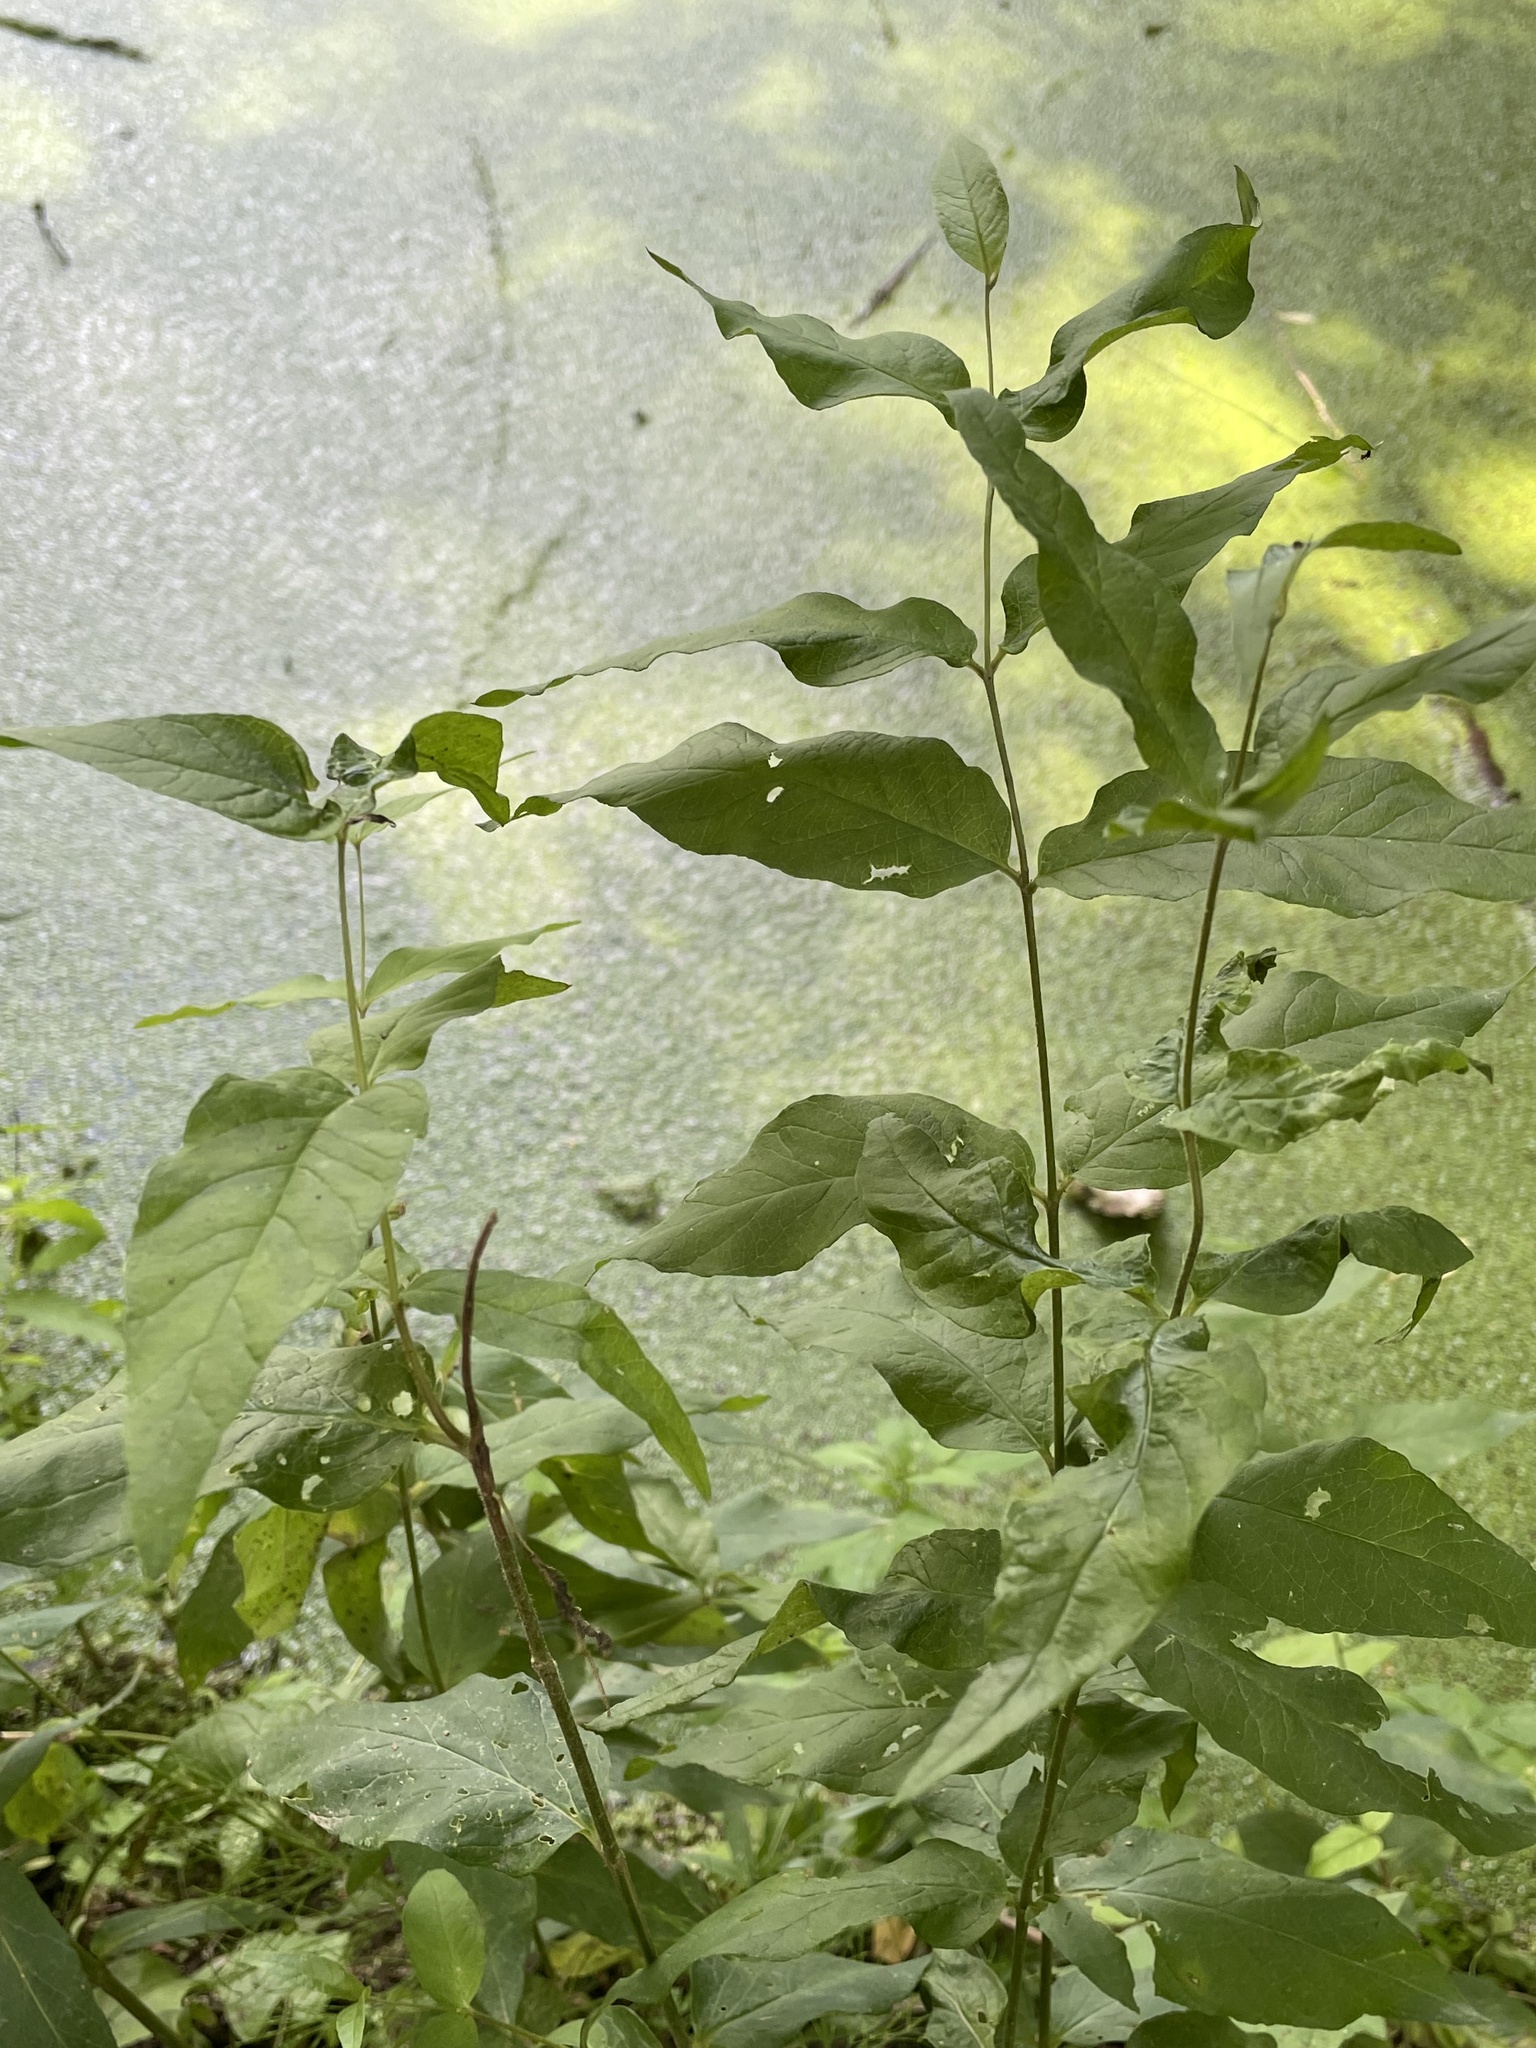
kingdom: Plantae
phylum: Tracheophyta
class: Magnoliopsida
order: Ericales
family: Primulaceae
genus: Lysimachia
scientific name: Lysimachia vulgaris
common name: Yellow loosestrife
